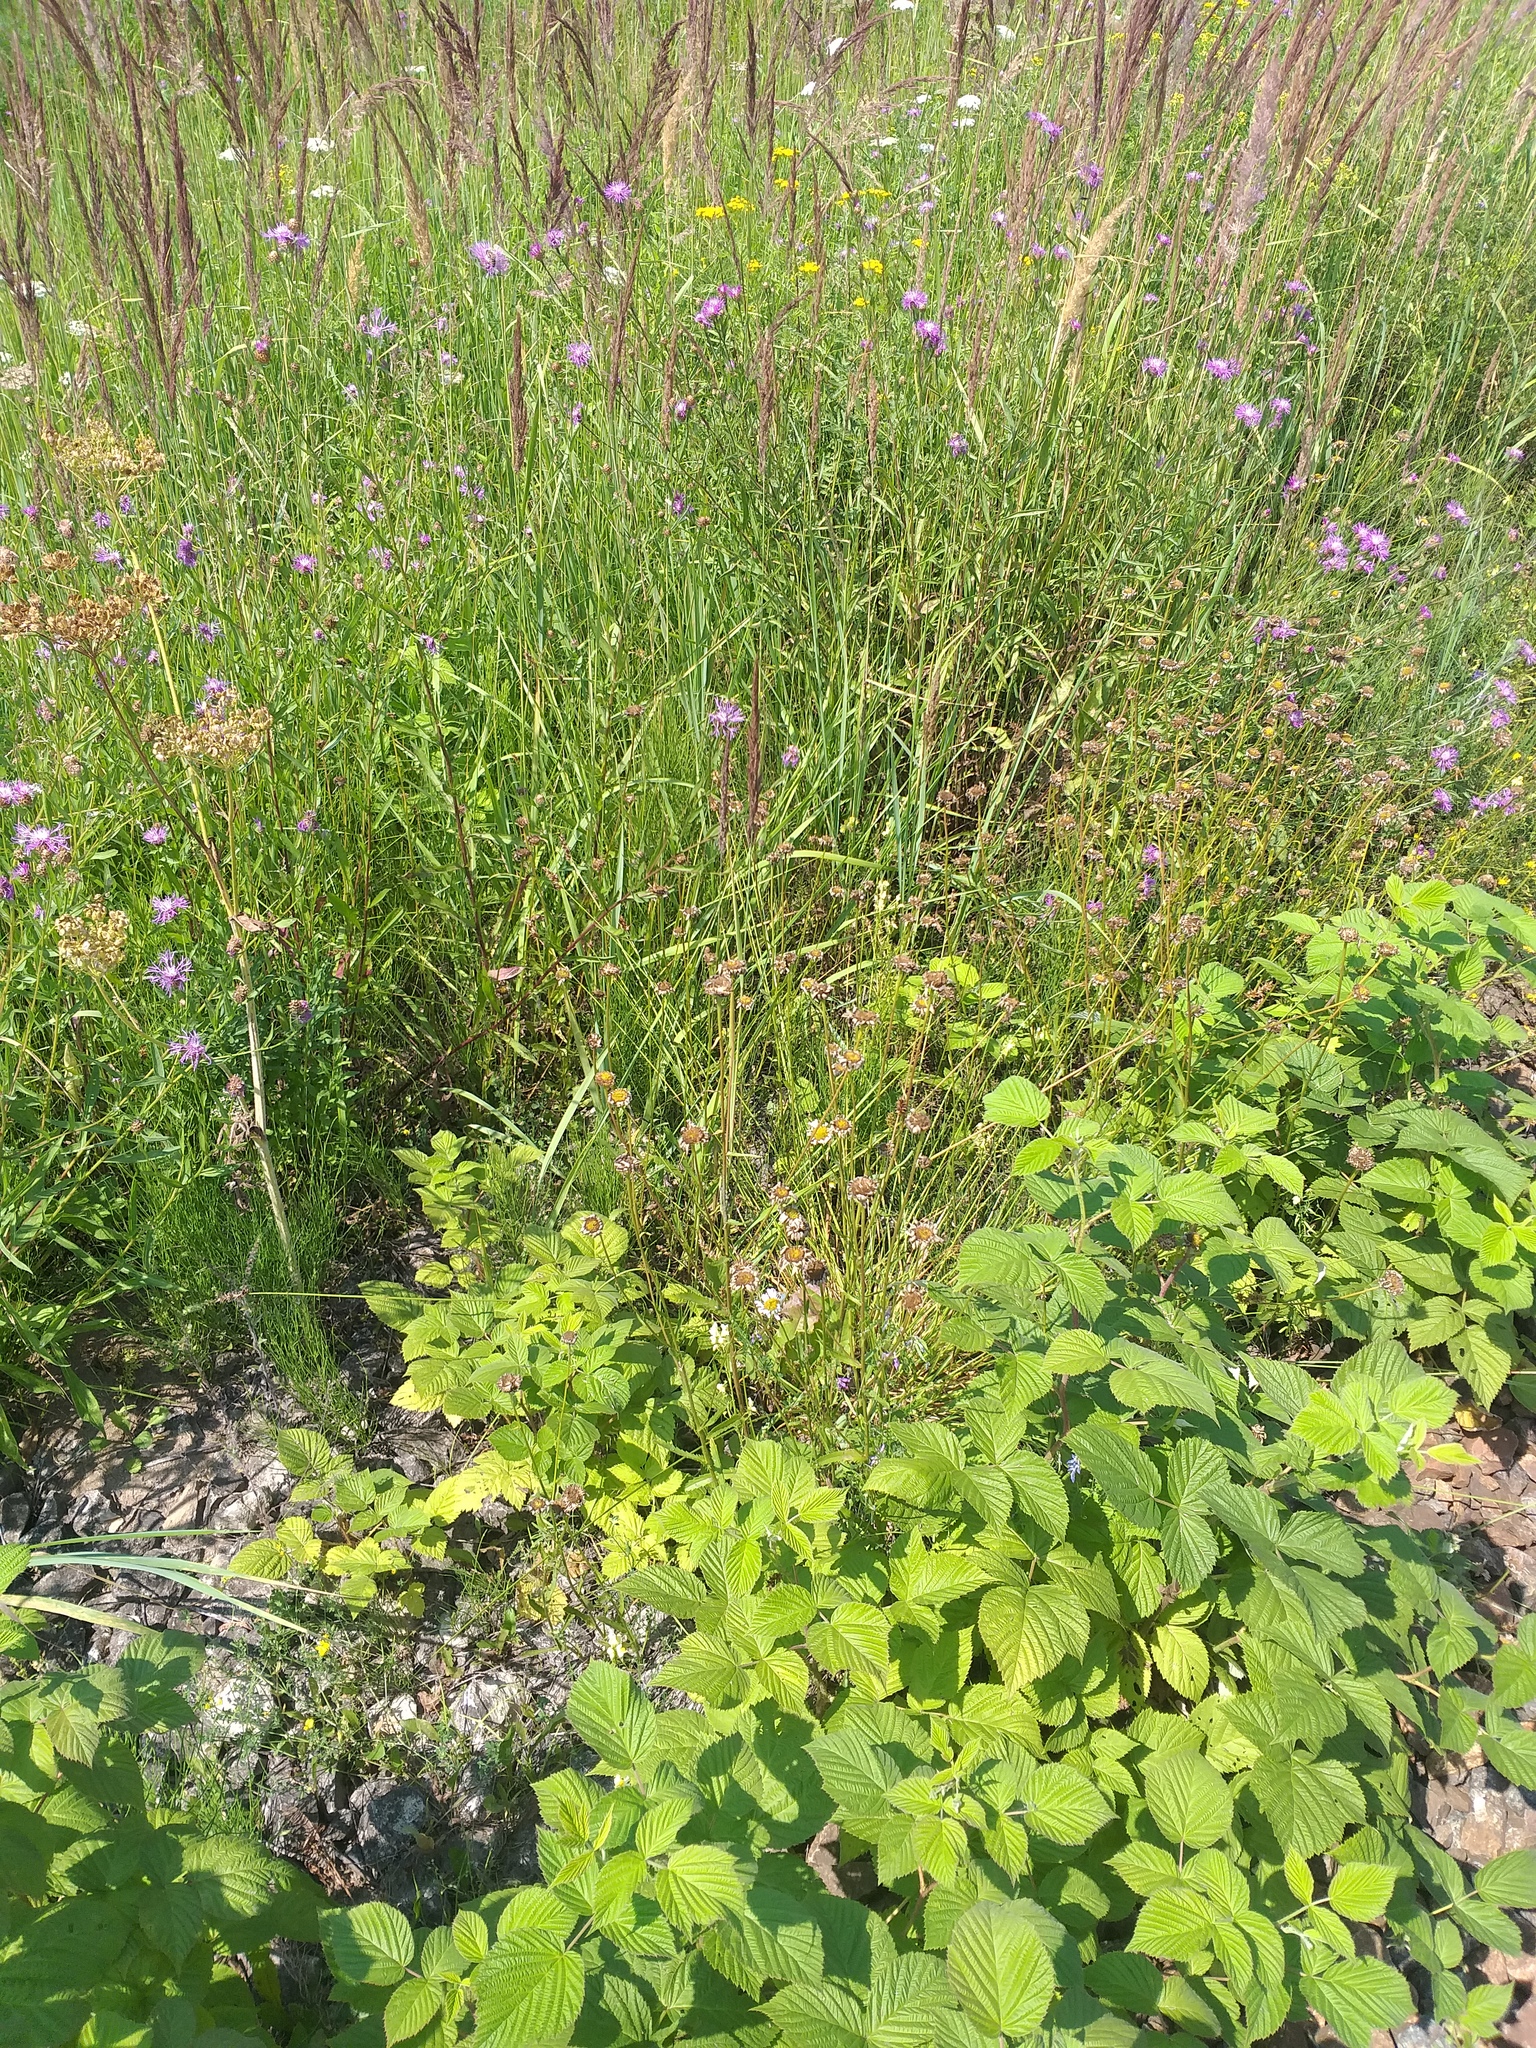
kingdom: Plantae
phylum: Tracheophyta
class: Magnoliopsida
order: Asterales
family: Asteraceae
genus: Leucanthemum
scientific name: Leucanthemum vulgare
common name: Oxeye daisy
